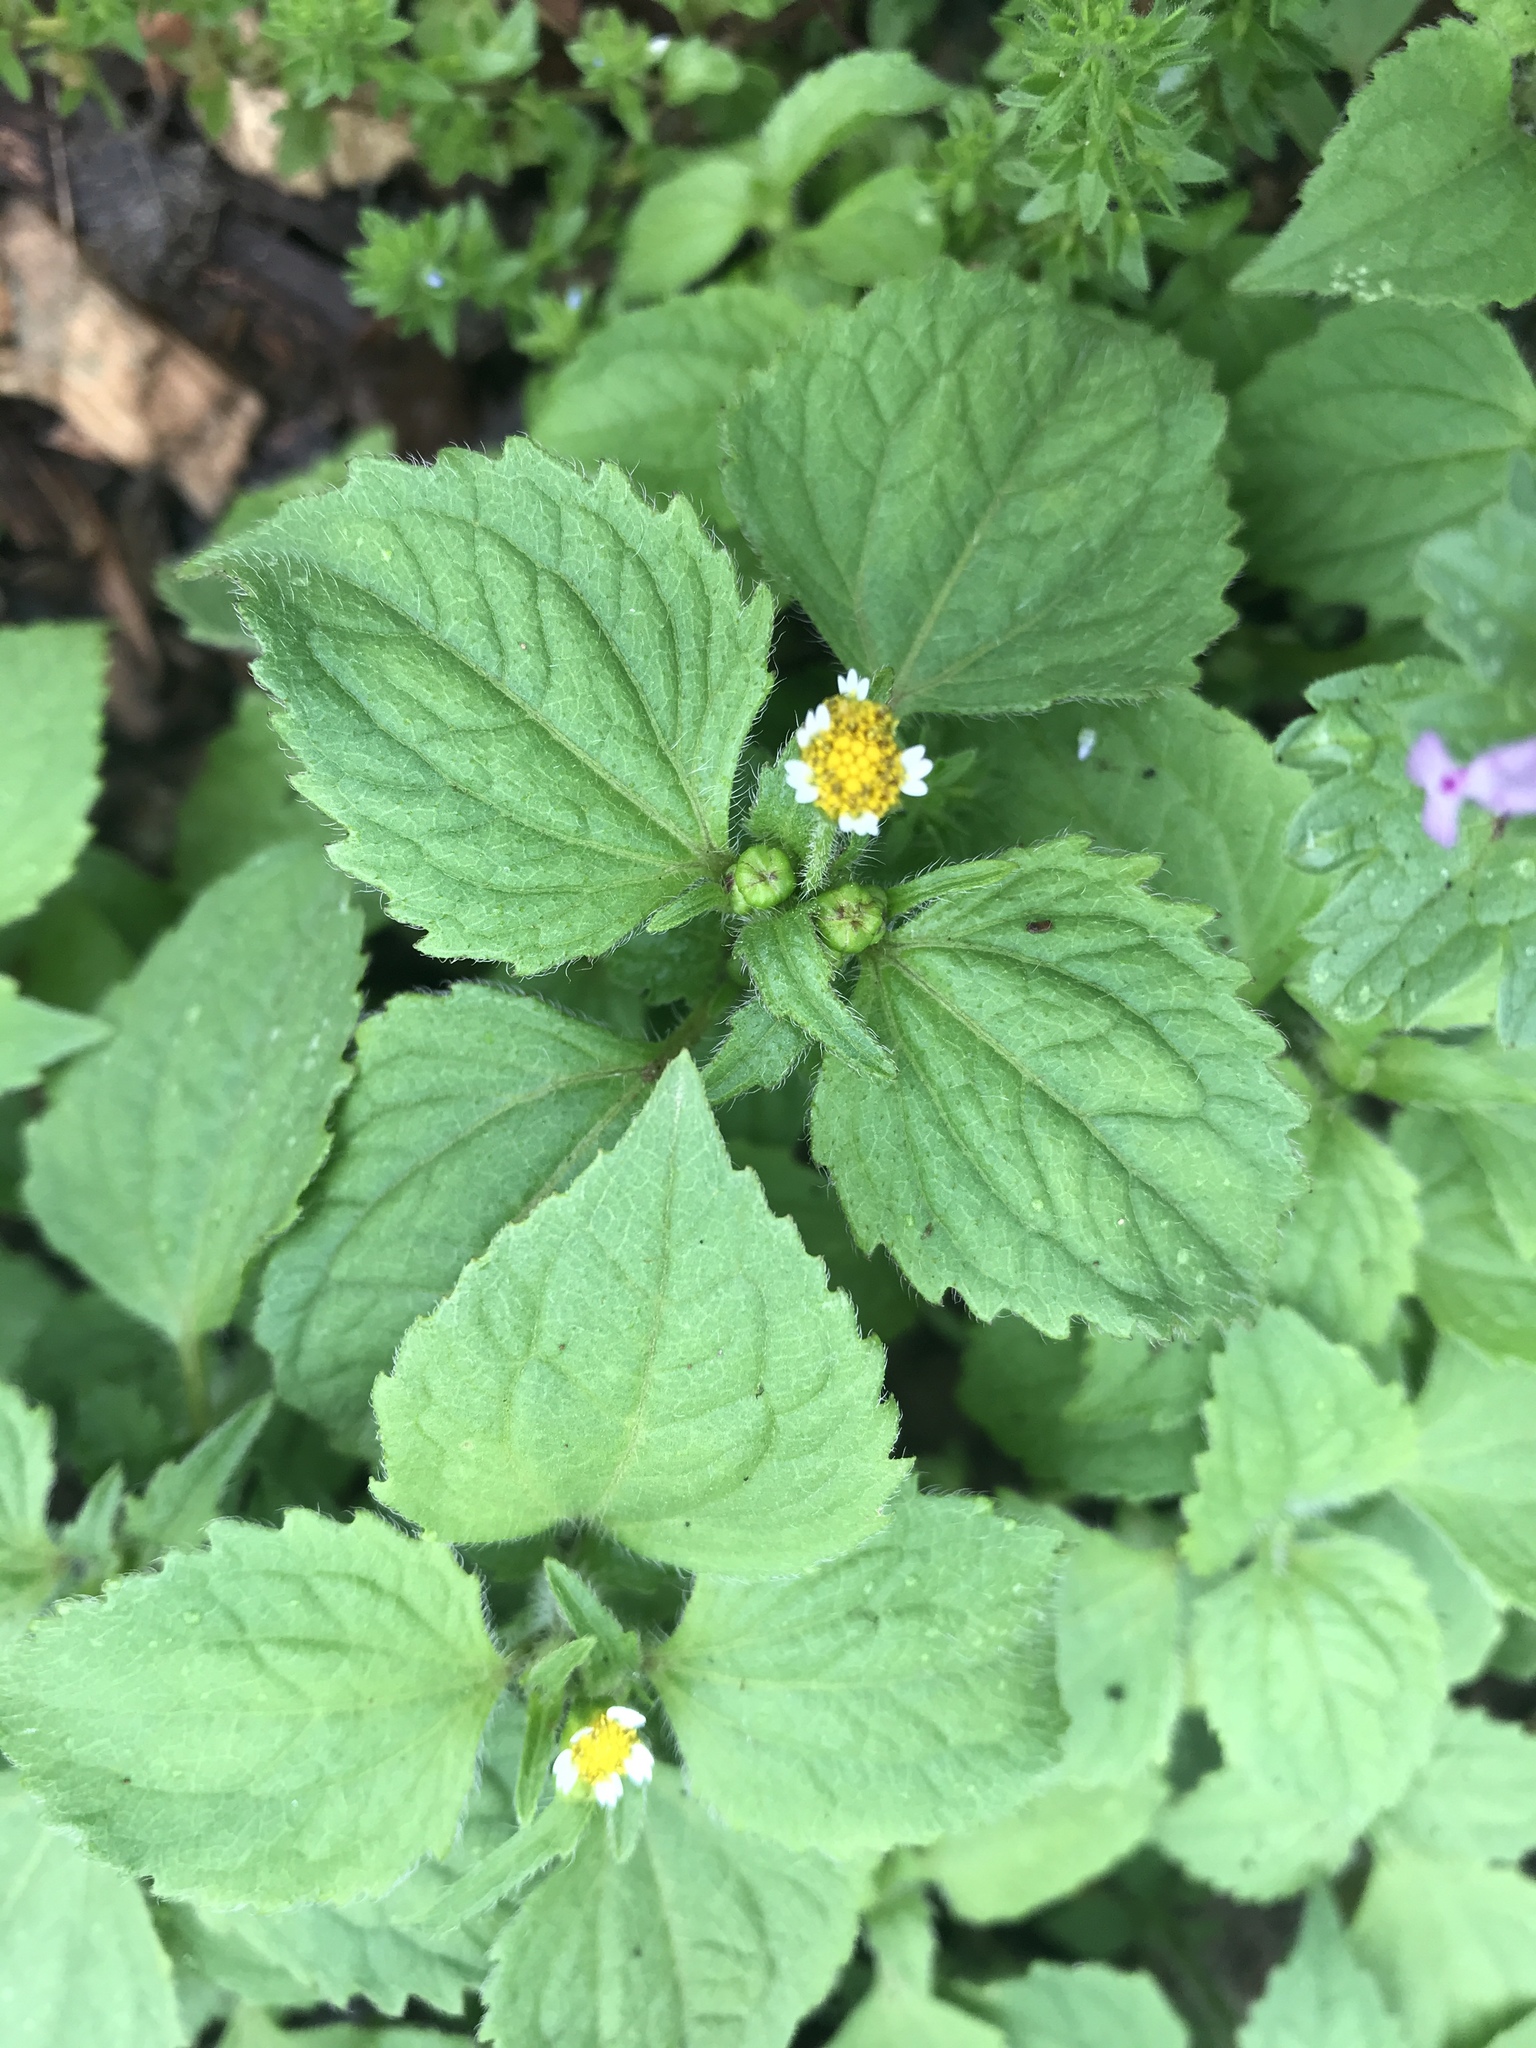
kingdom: Plantae
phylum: Tracheophyta
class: Magnoliopsida
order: Asterales
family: Asteraceae
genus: Galinsoga
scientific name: Galinsoga quadriradiata
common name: Shaggy soldier
